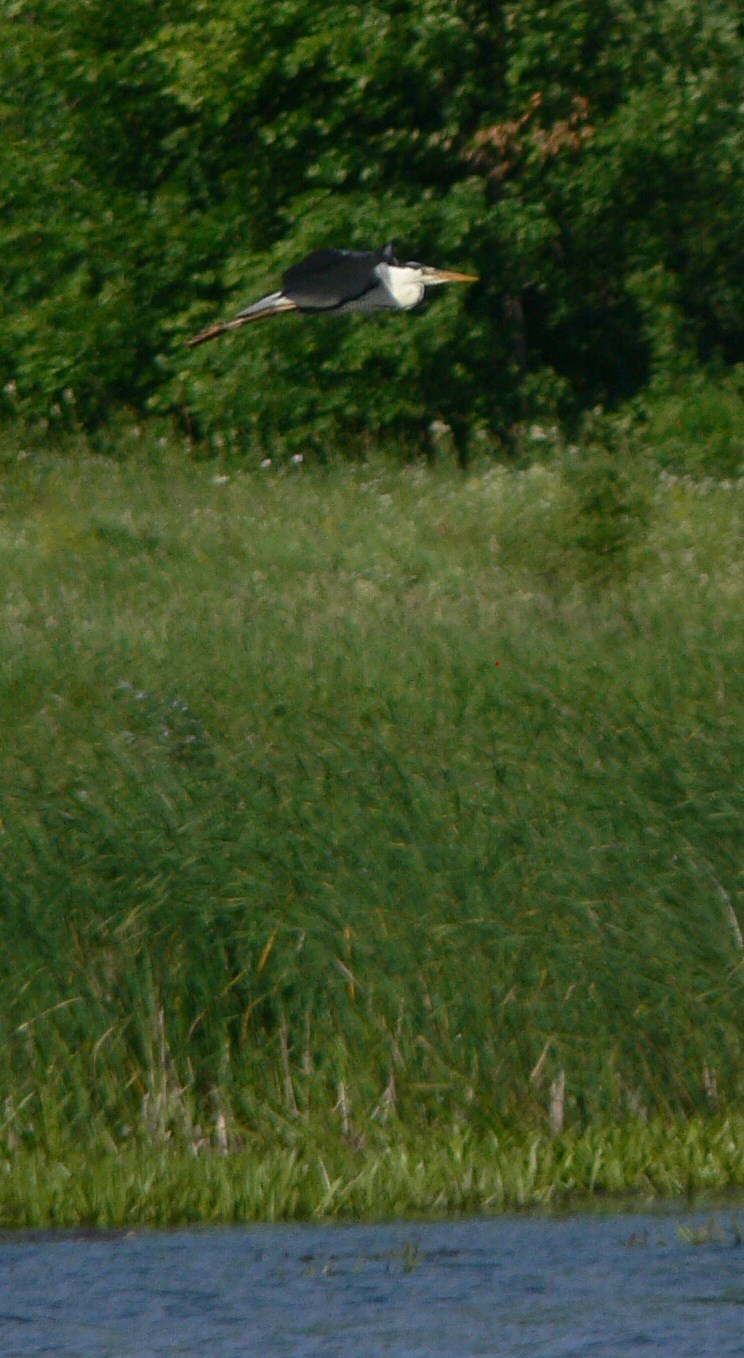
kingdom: Animalia
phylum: Chordata
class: Aves
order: Pelecaniformes
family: Ardeidae
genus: Ardea
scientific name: Ardea cinerea
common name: Grey heron
